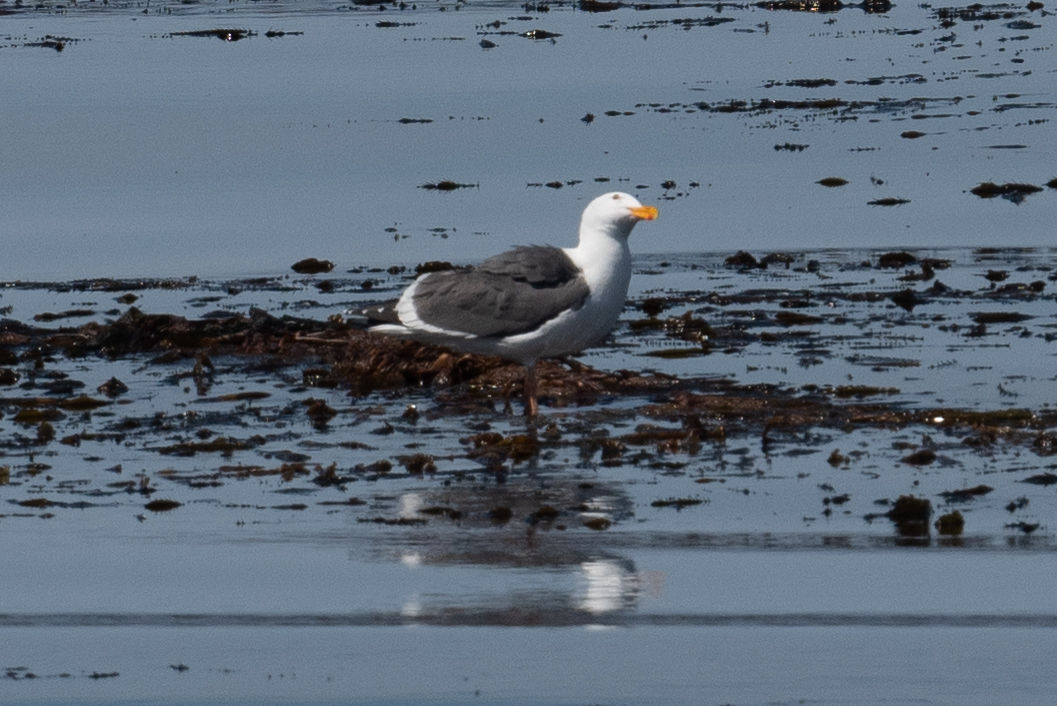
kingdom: Animalia
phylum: Chordata
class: Aves
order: Charadriiformes
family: Laridae
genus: Larus
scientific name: Larus occidentalis
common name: Western gull
